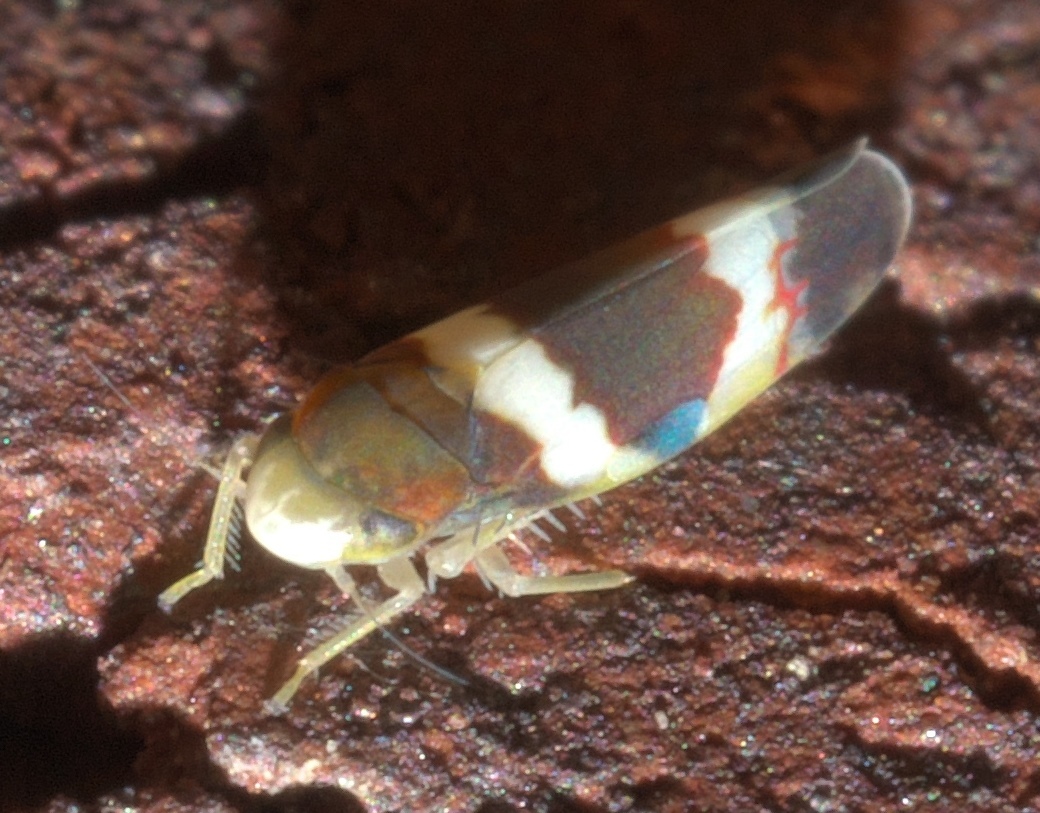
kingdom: Animalia
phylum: Arthropoda
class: Insecta
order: Hemiptera
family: Cicadellidae
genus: Erythroneura
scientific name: Erythroneura vitis
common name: Grapevine leafhopper
